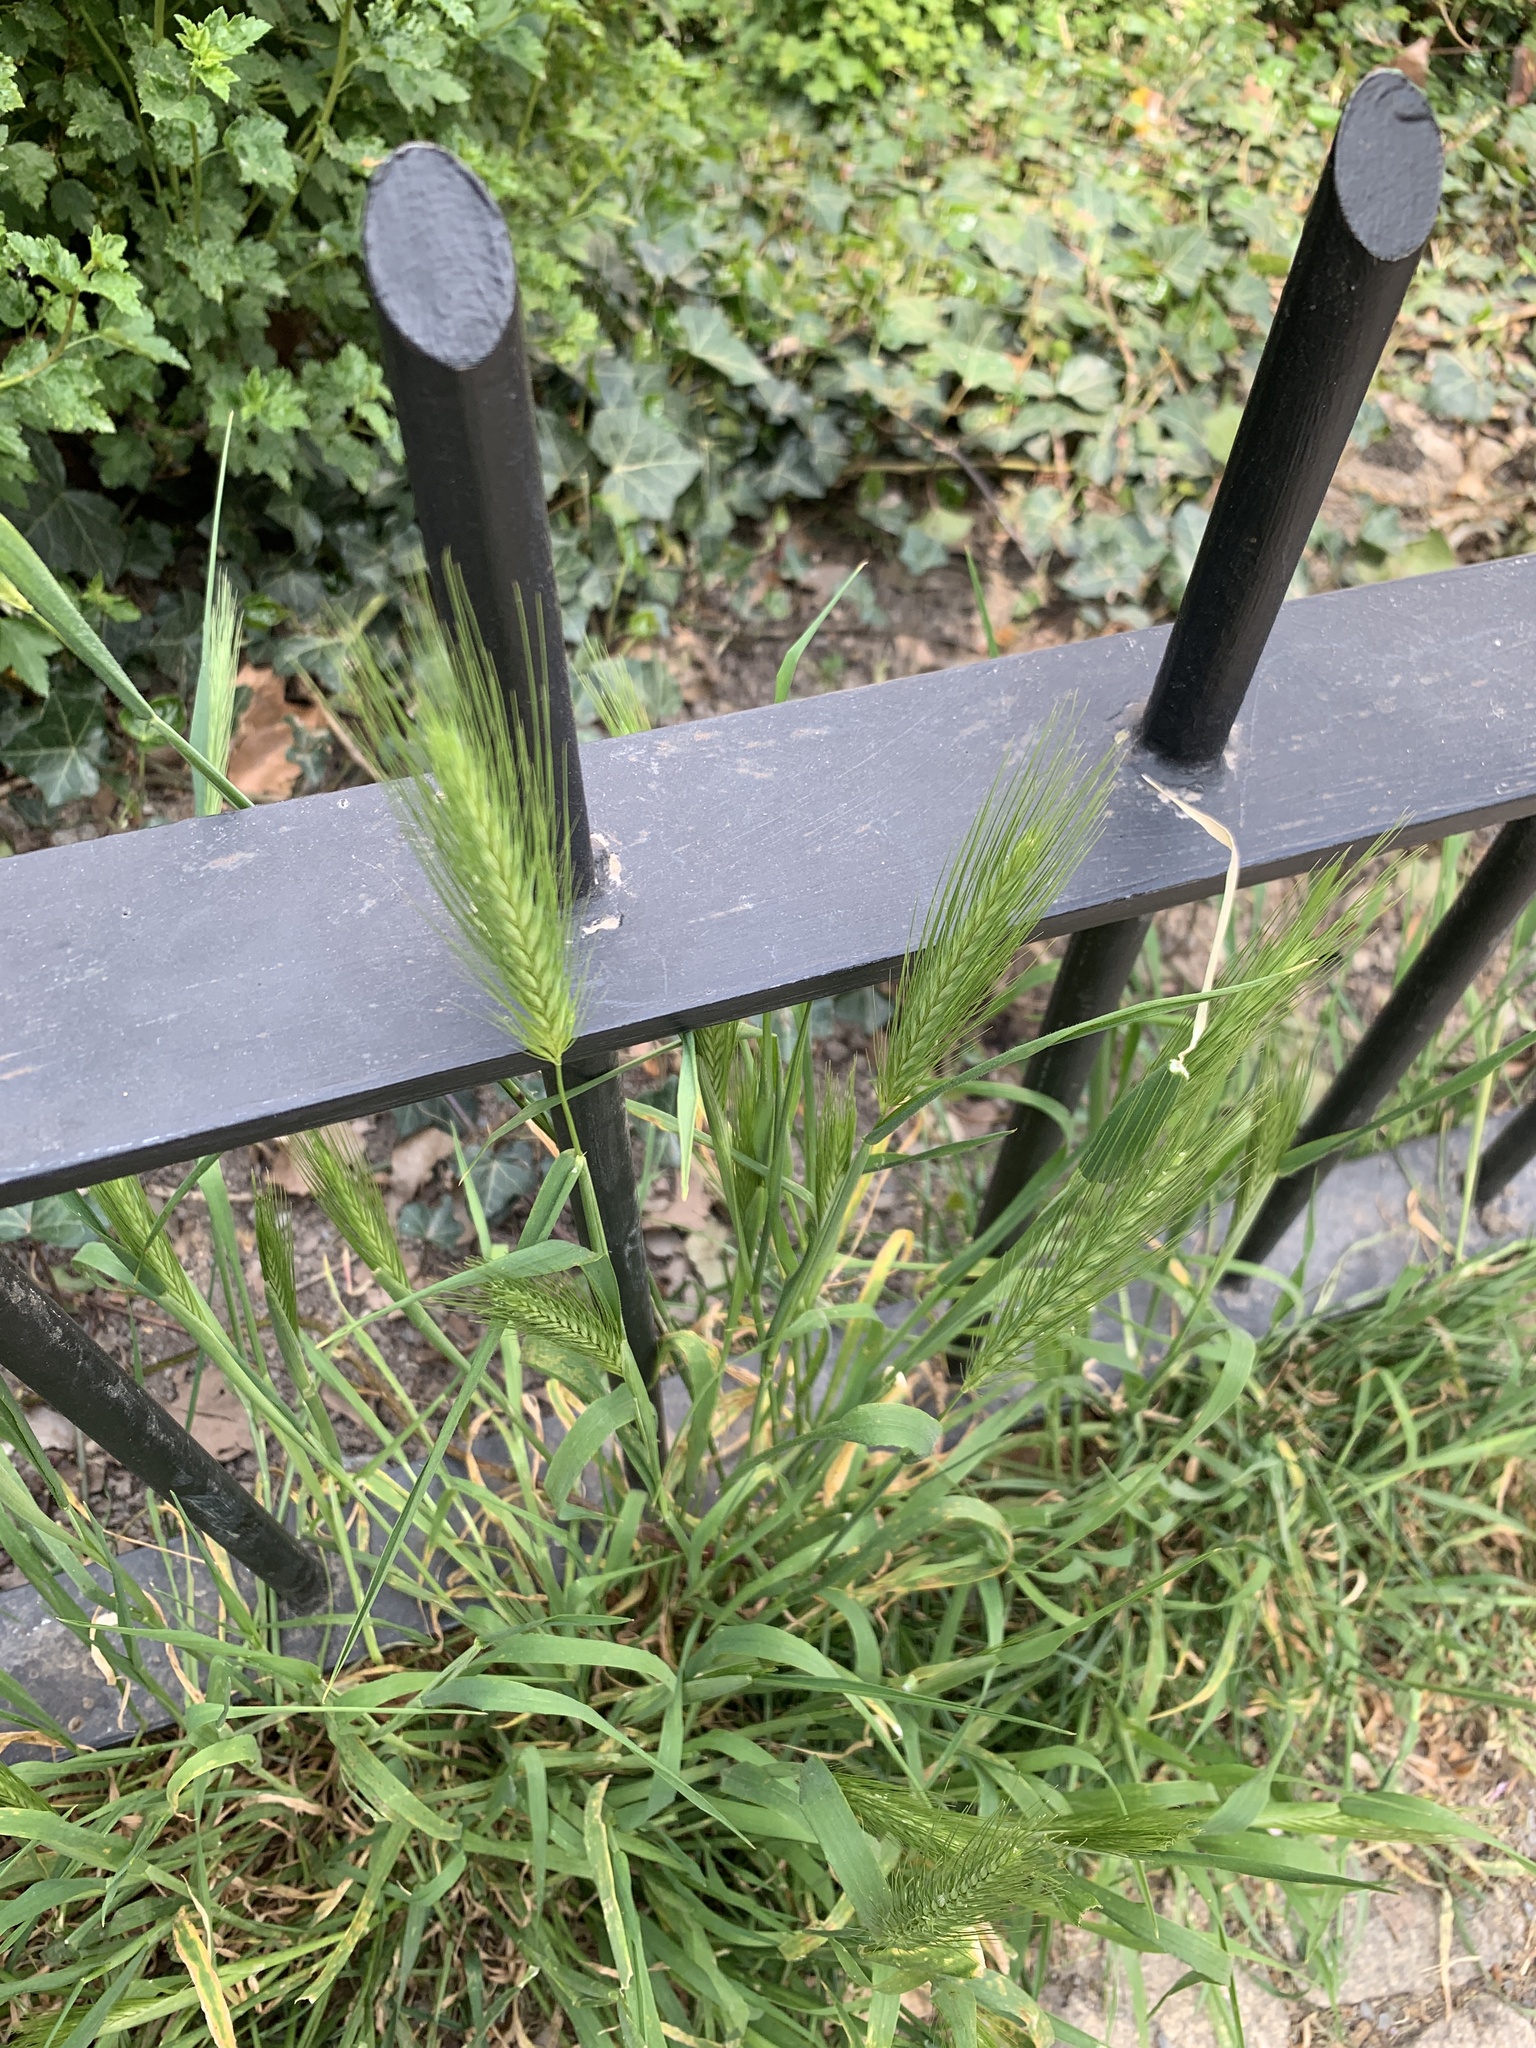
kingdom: Plantae
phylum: Tracheophyta
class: Liliopsida
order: Poales
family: Poaceae
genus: Hordeum
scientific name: Hordeum murinum
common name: Wall barley
